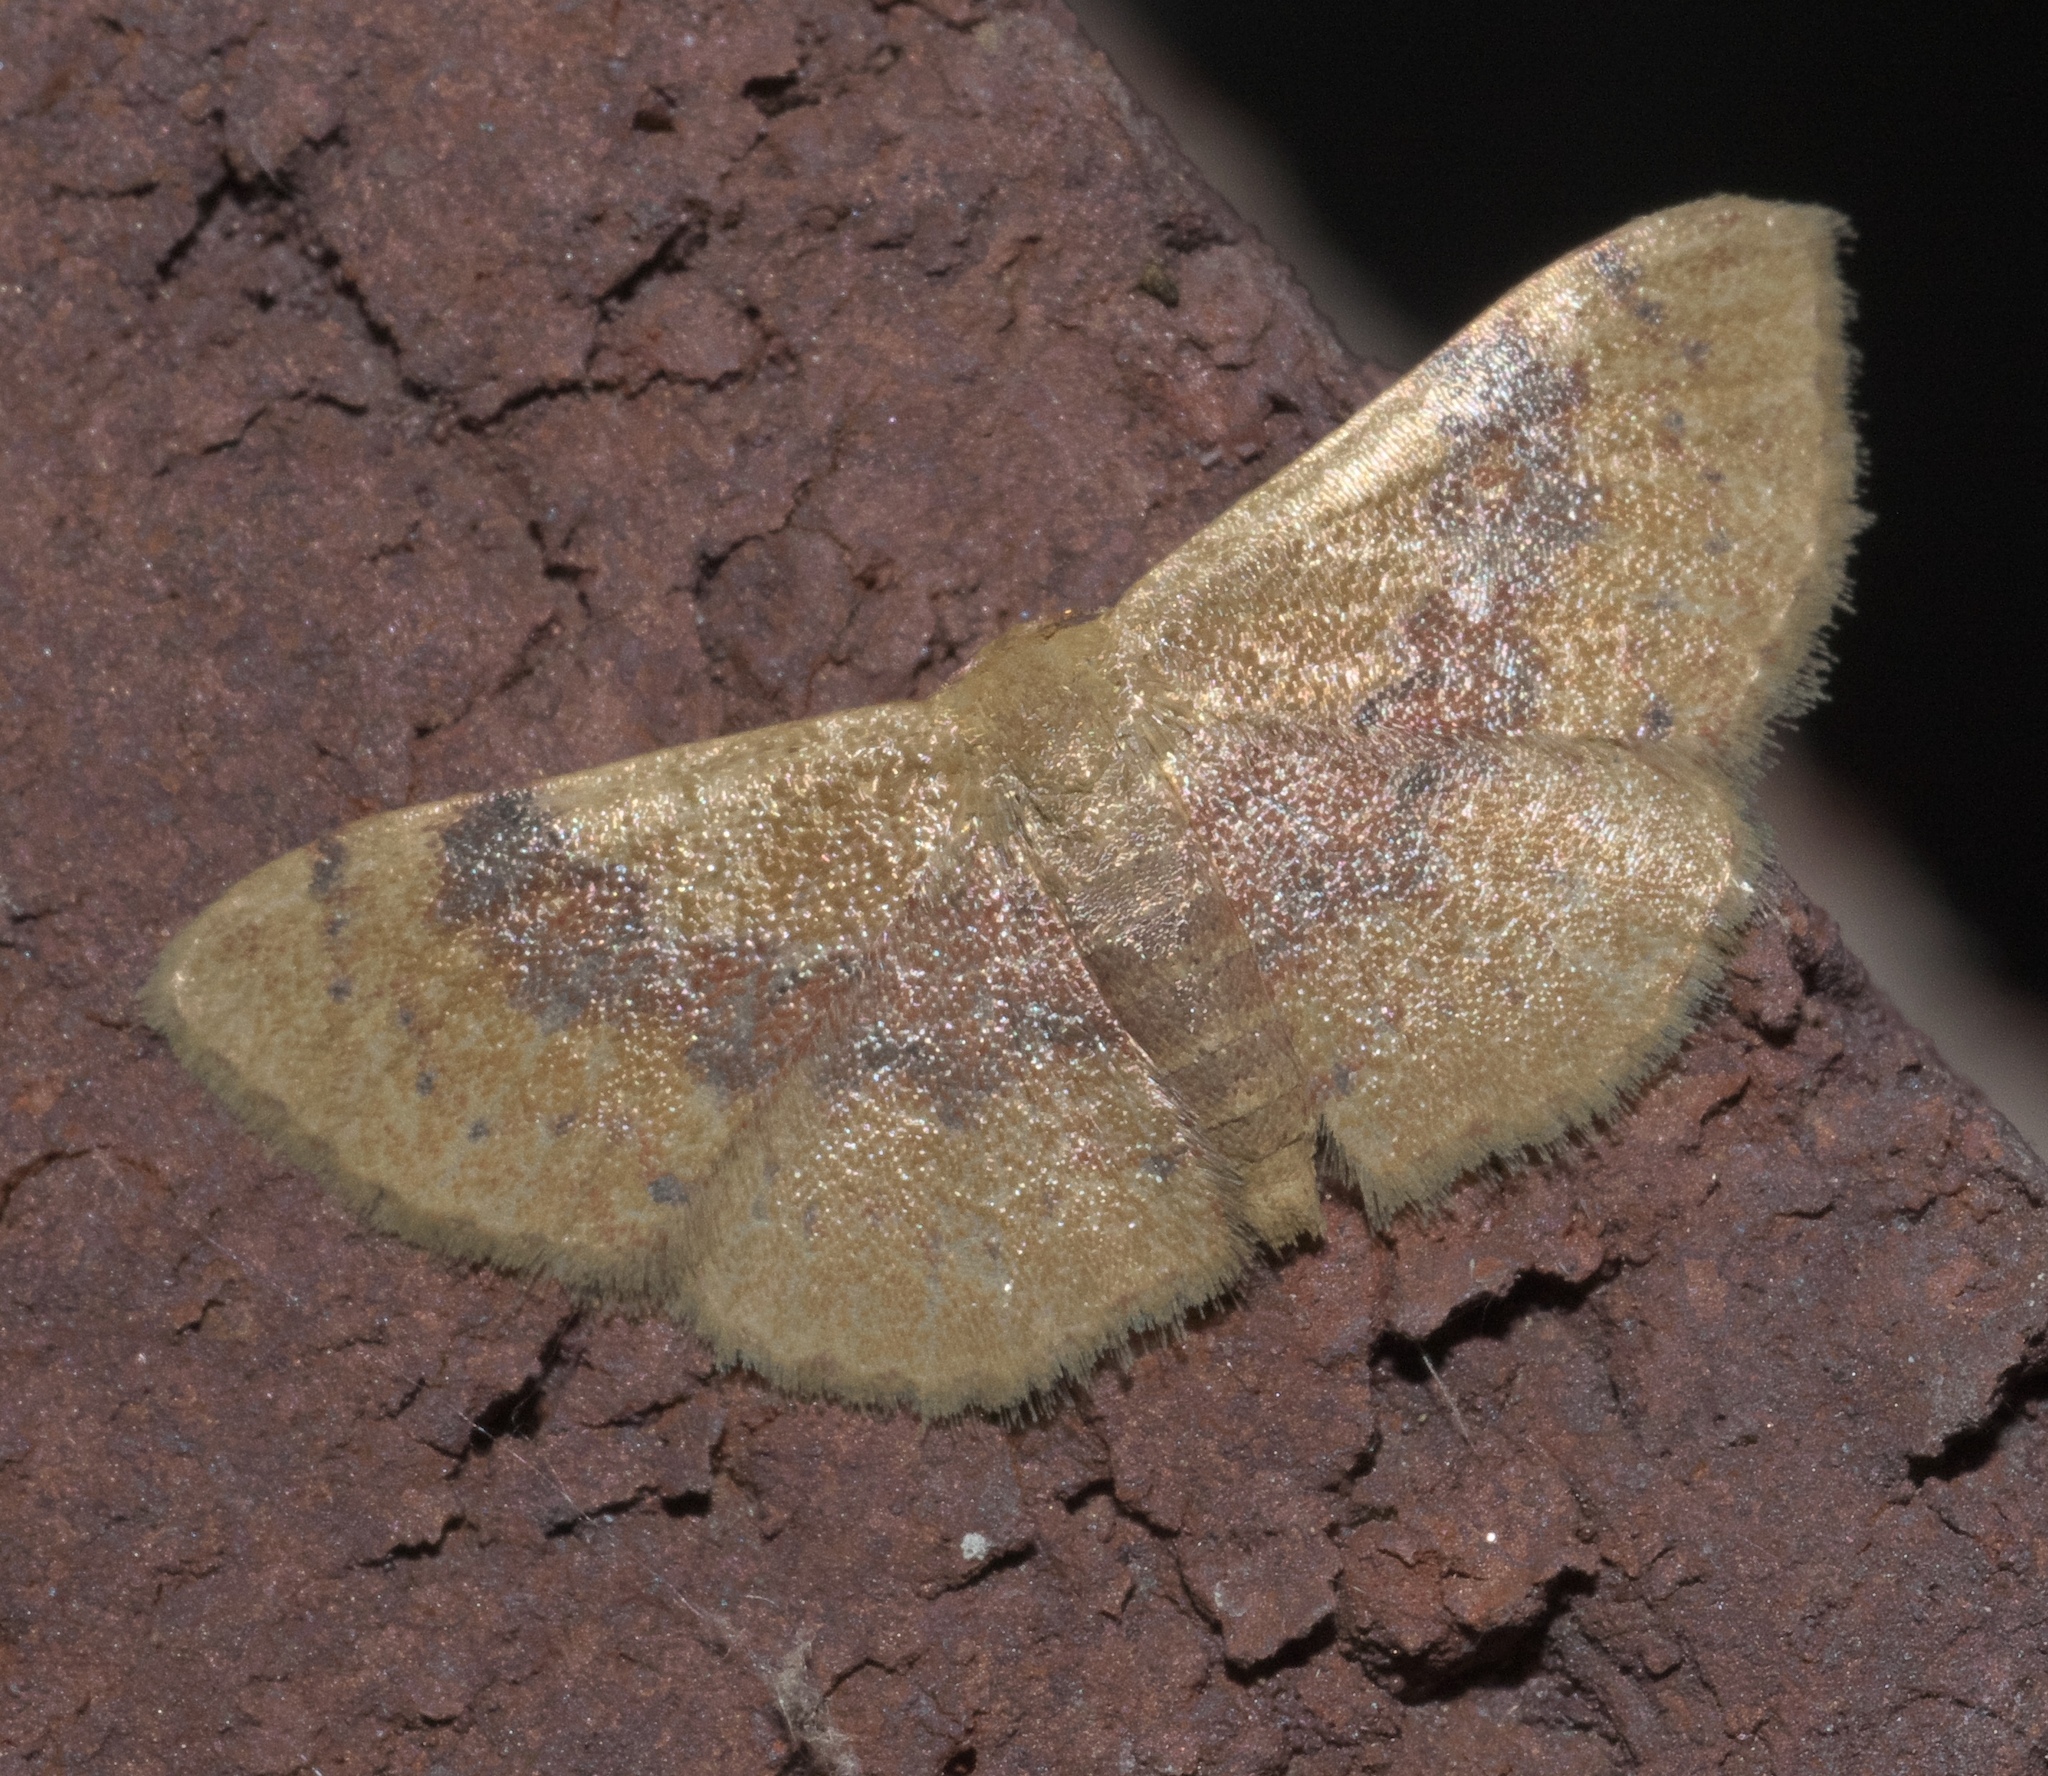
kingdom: Animalia
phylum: Arthropoda
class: Insecta
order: Lepidoptera
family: Geometridae
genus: Leptostales
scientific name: Leptostales ferruminaria
